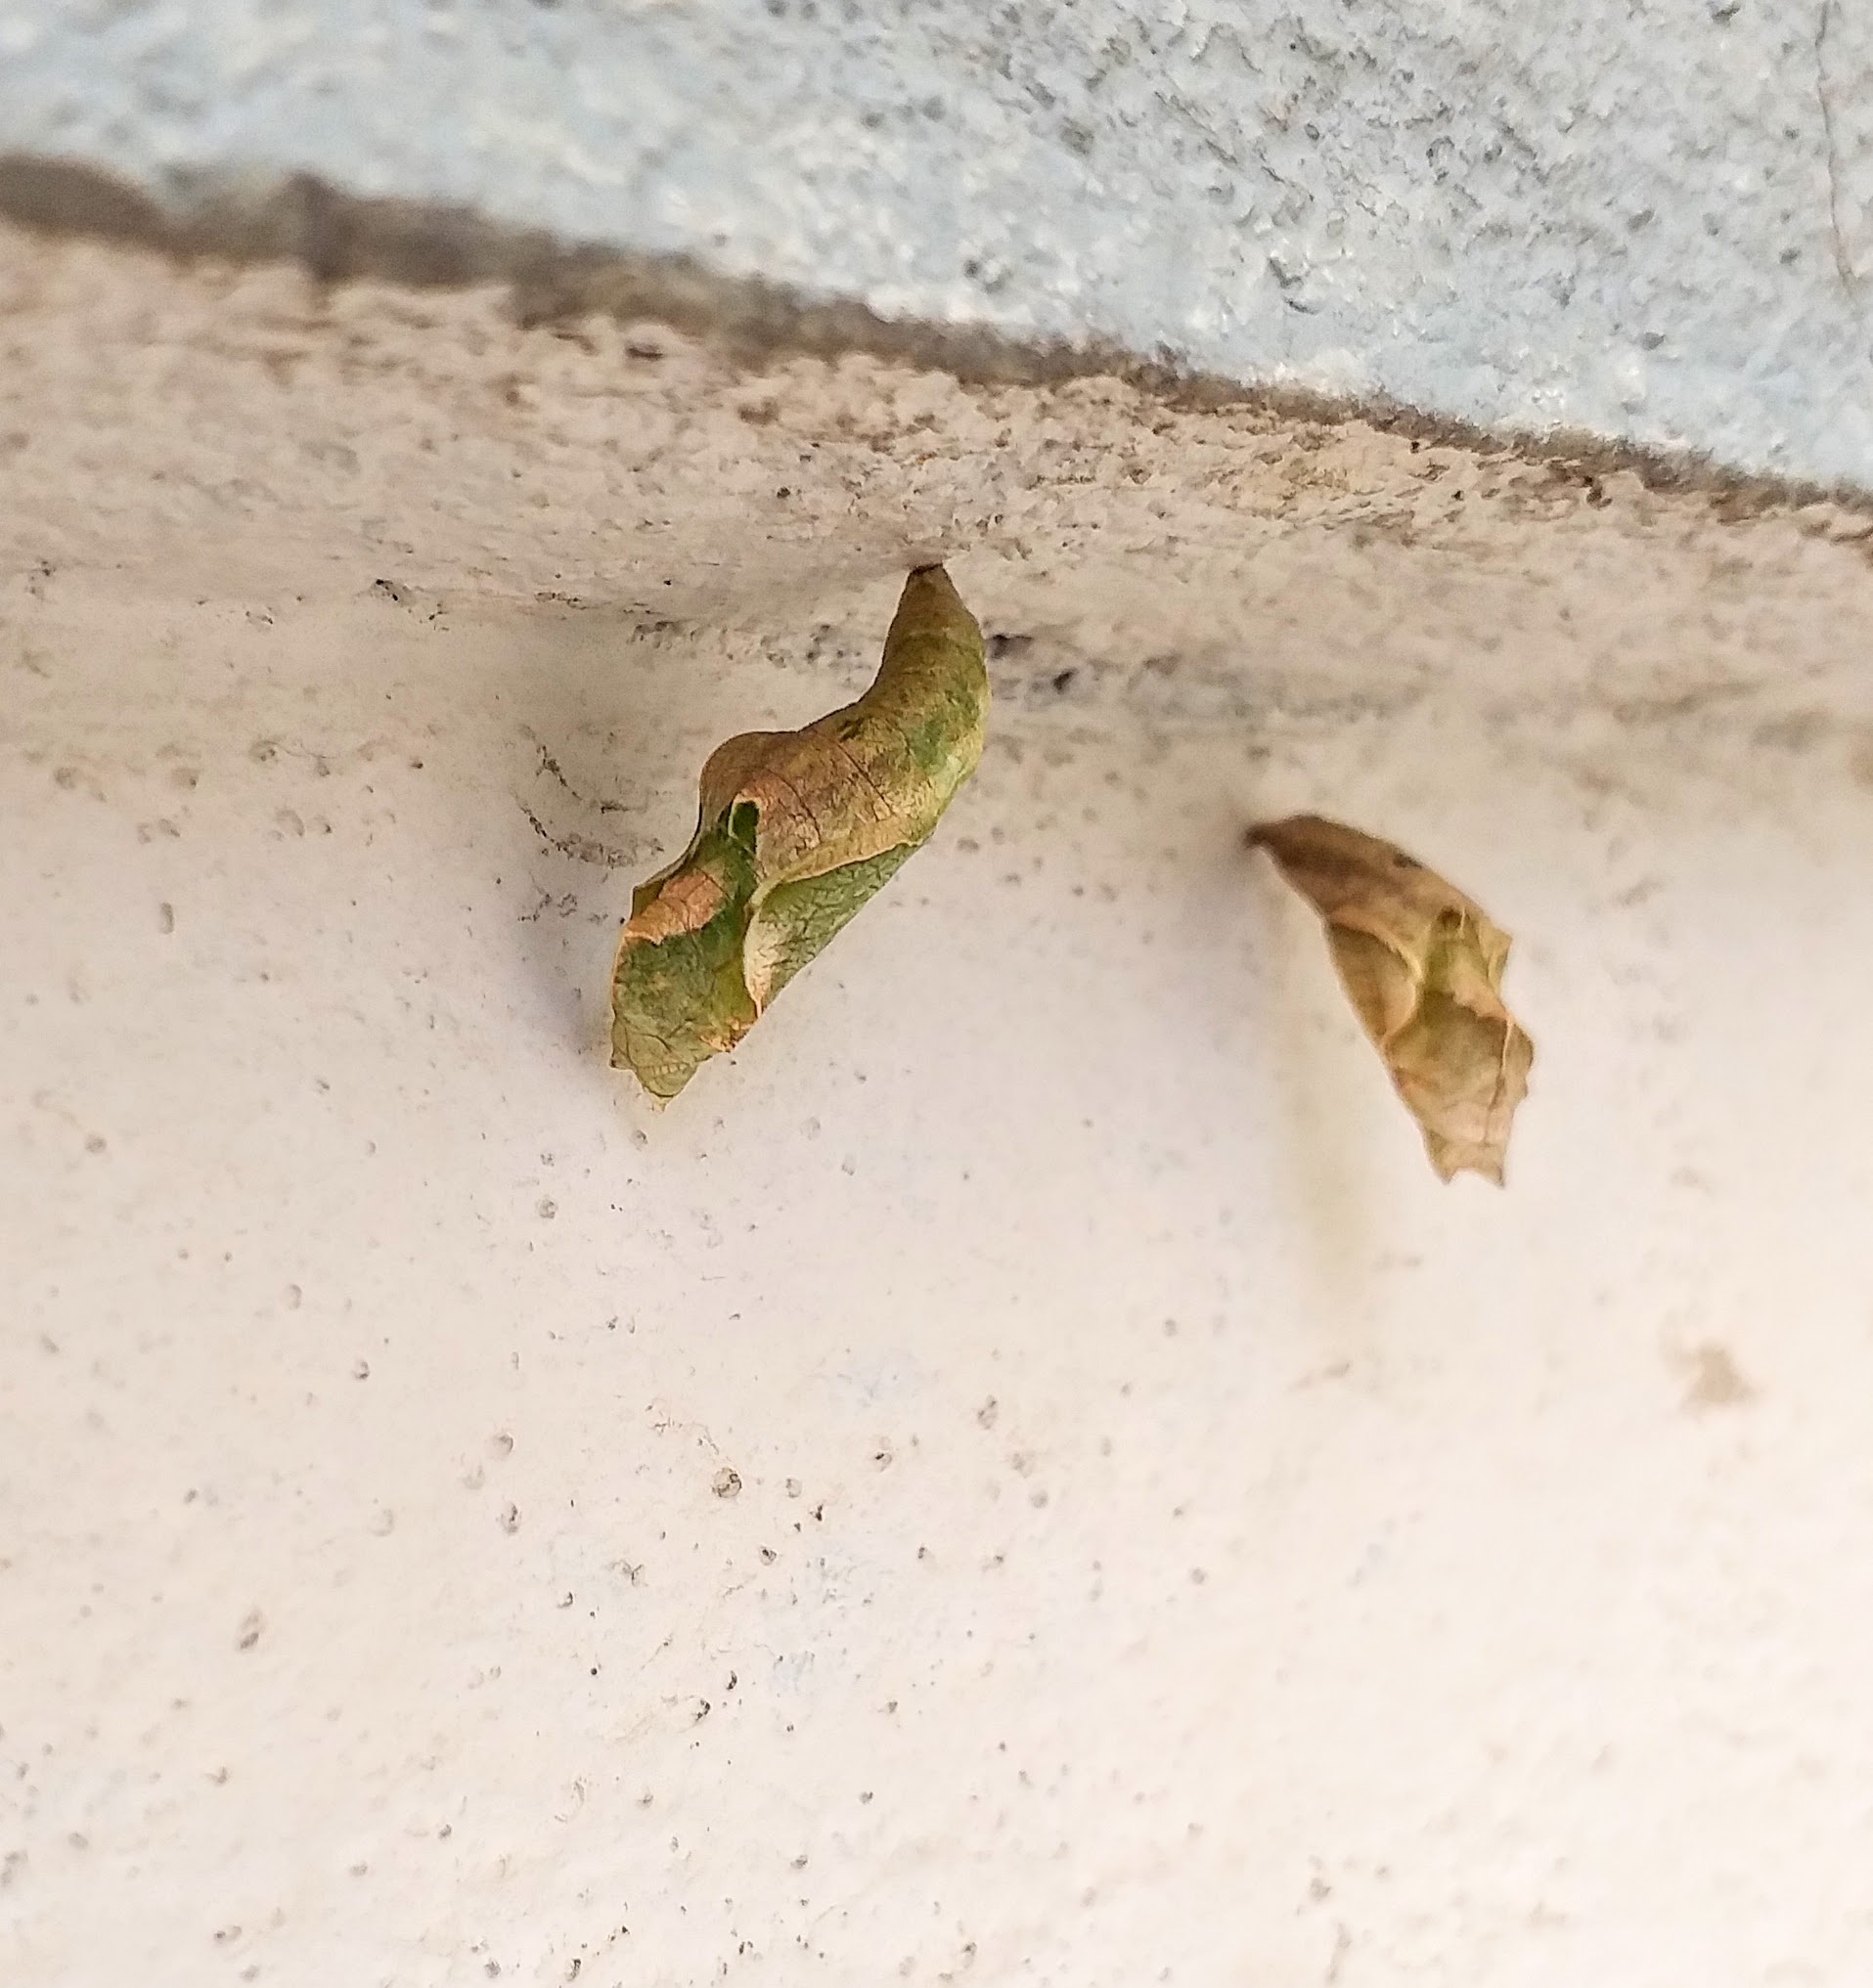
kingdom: Animalia
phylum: Arthropoda
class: Insecta
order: Lepidoptera
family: Nymphalidae
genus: Ariadne
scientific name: Ariadne merione
